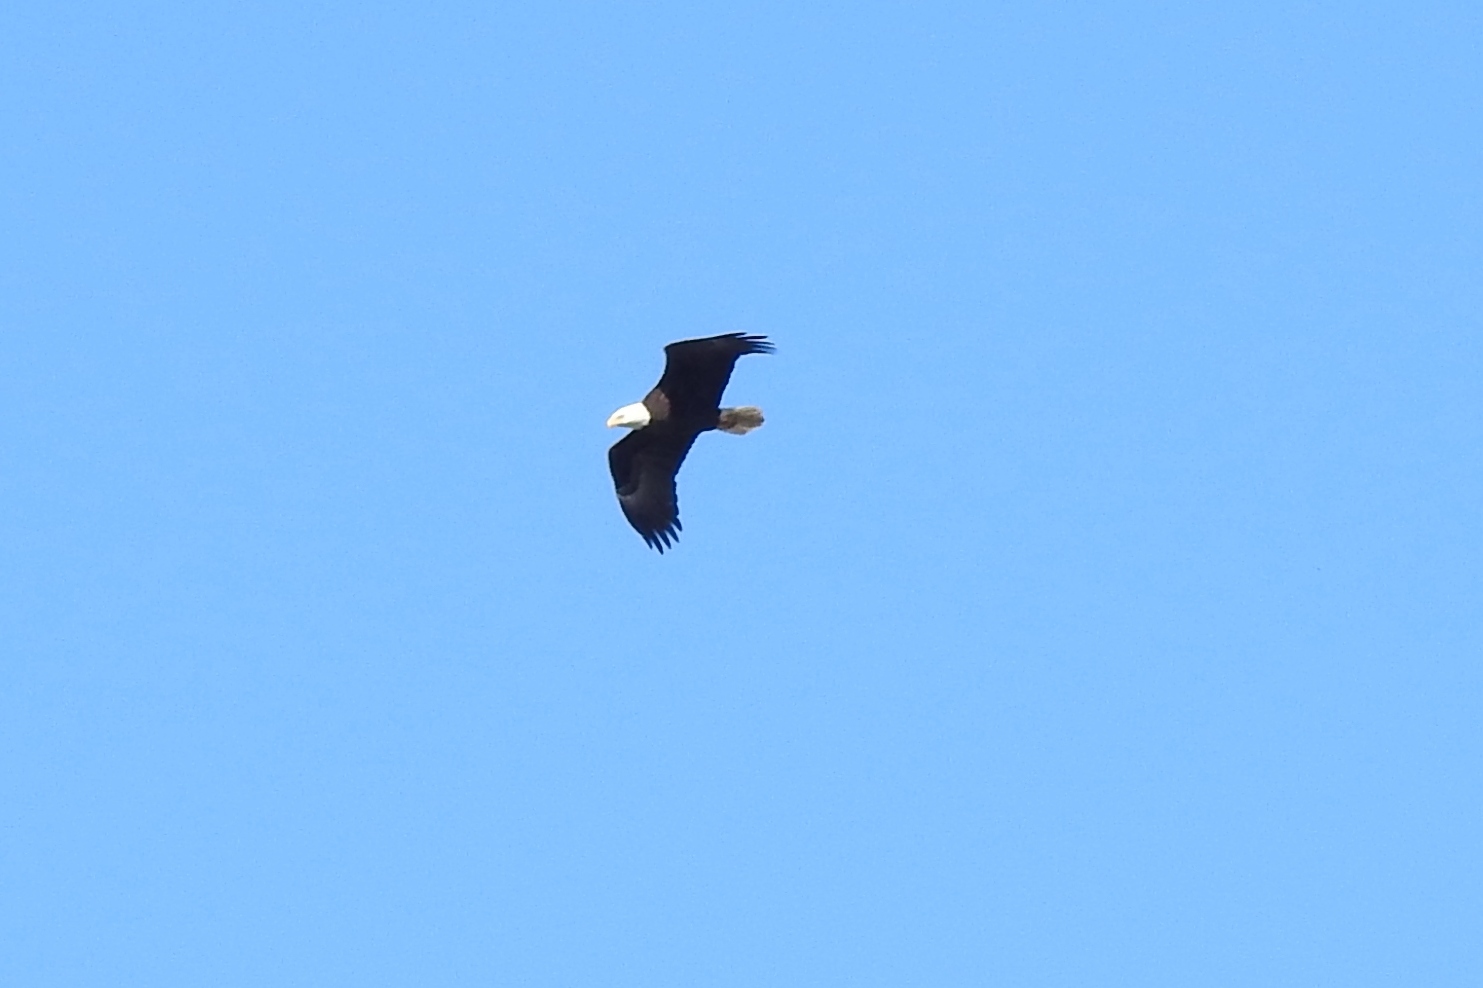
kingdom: Animalia
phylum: Chordata
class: Aves
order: Accipitriformes
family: Accipitridae
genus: Haliaeetus
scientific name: Haliaeetus leucocephalus
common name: Bald eagle
